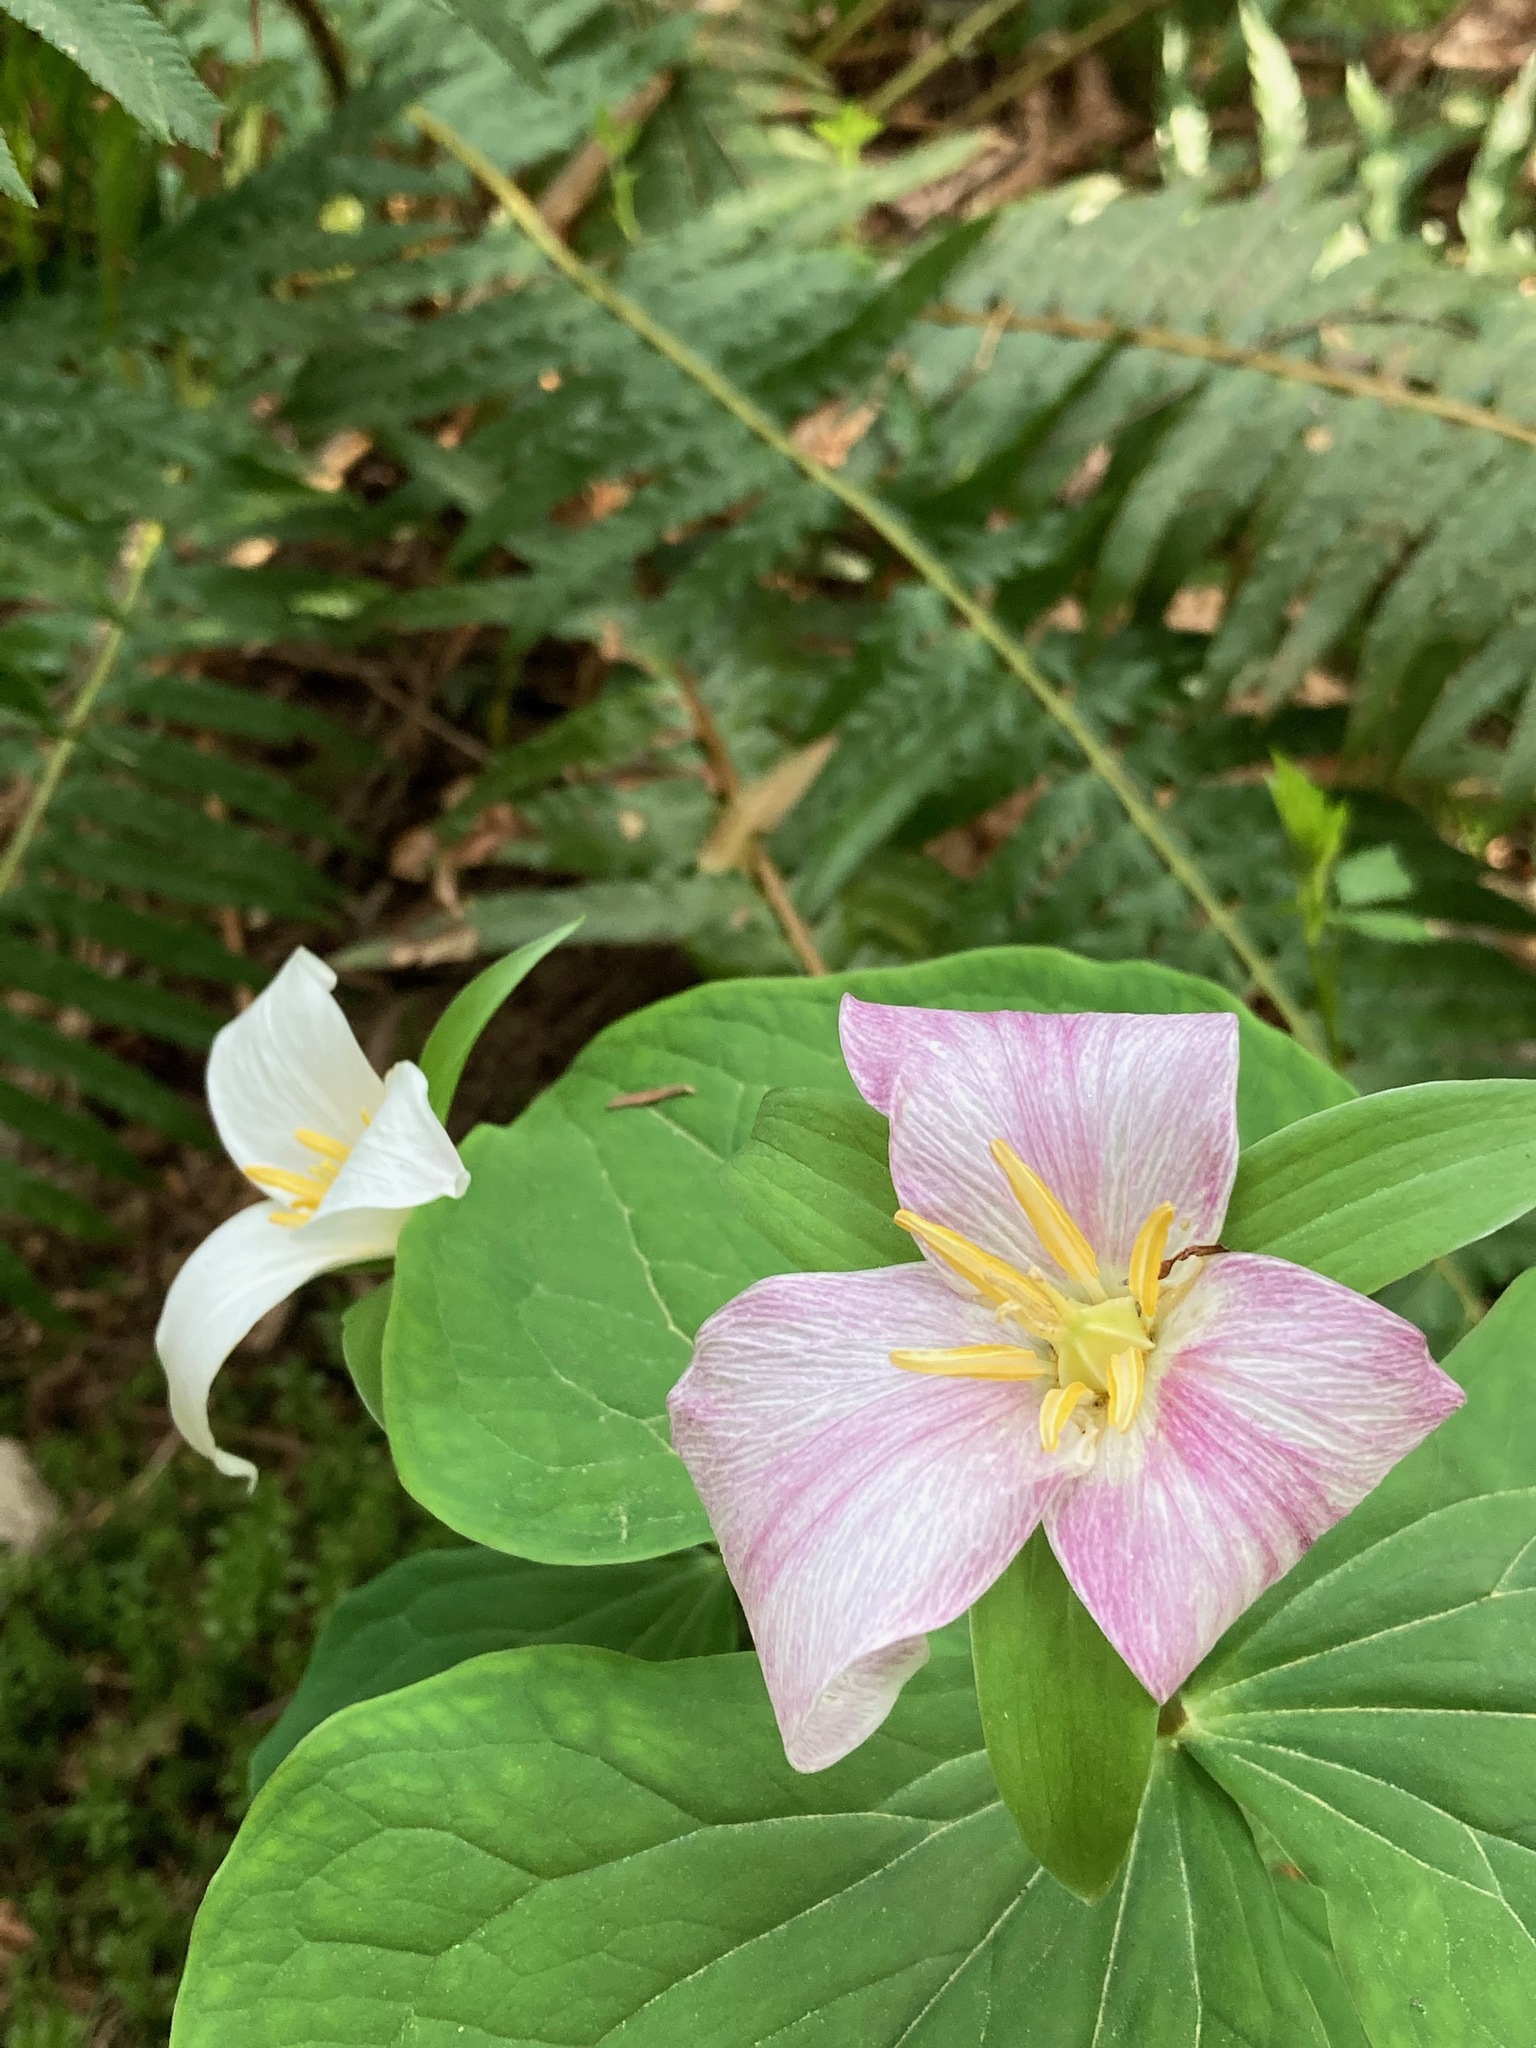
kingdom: Plantae
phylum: Tracheophyta
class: Liliopsida
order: Liliales
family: Melanthiaceae
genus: Trillium
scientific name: Trillium ovatum
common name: Pacific trillium
